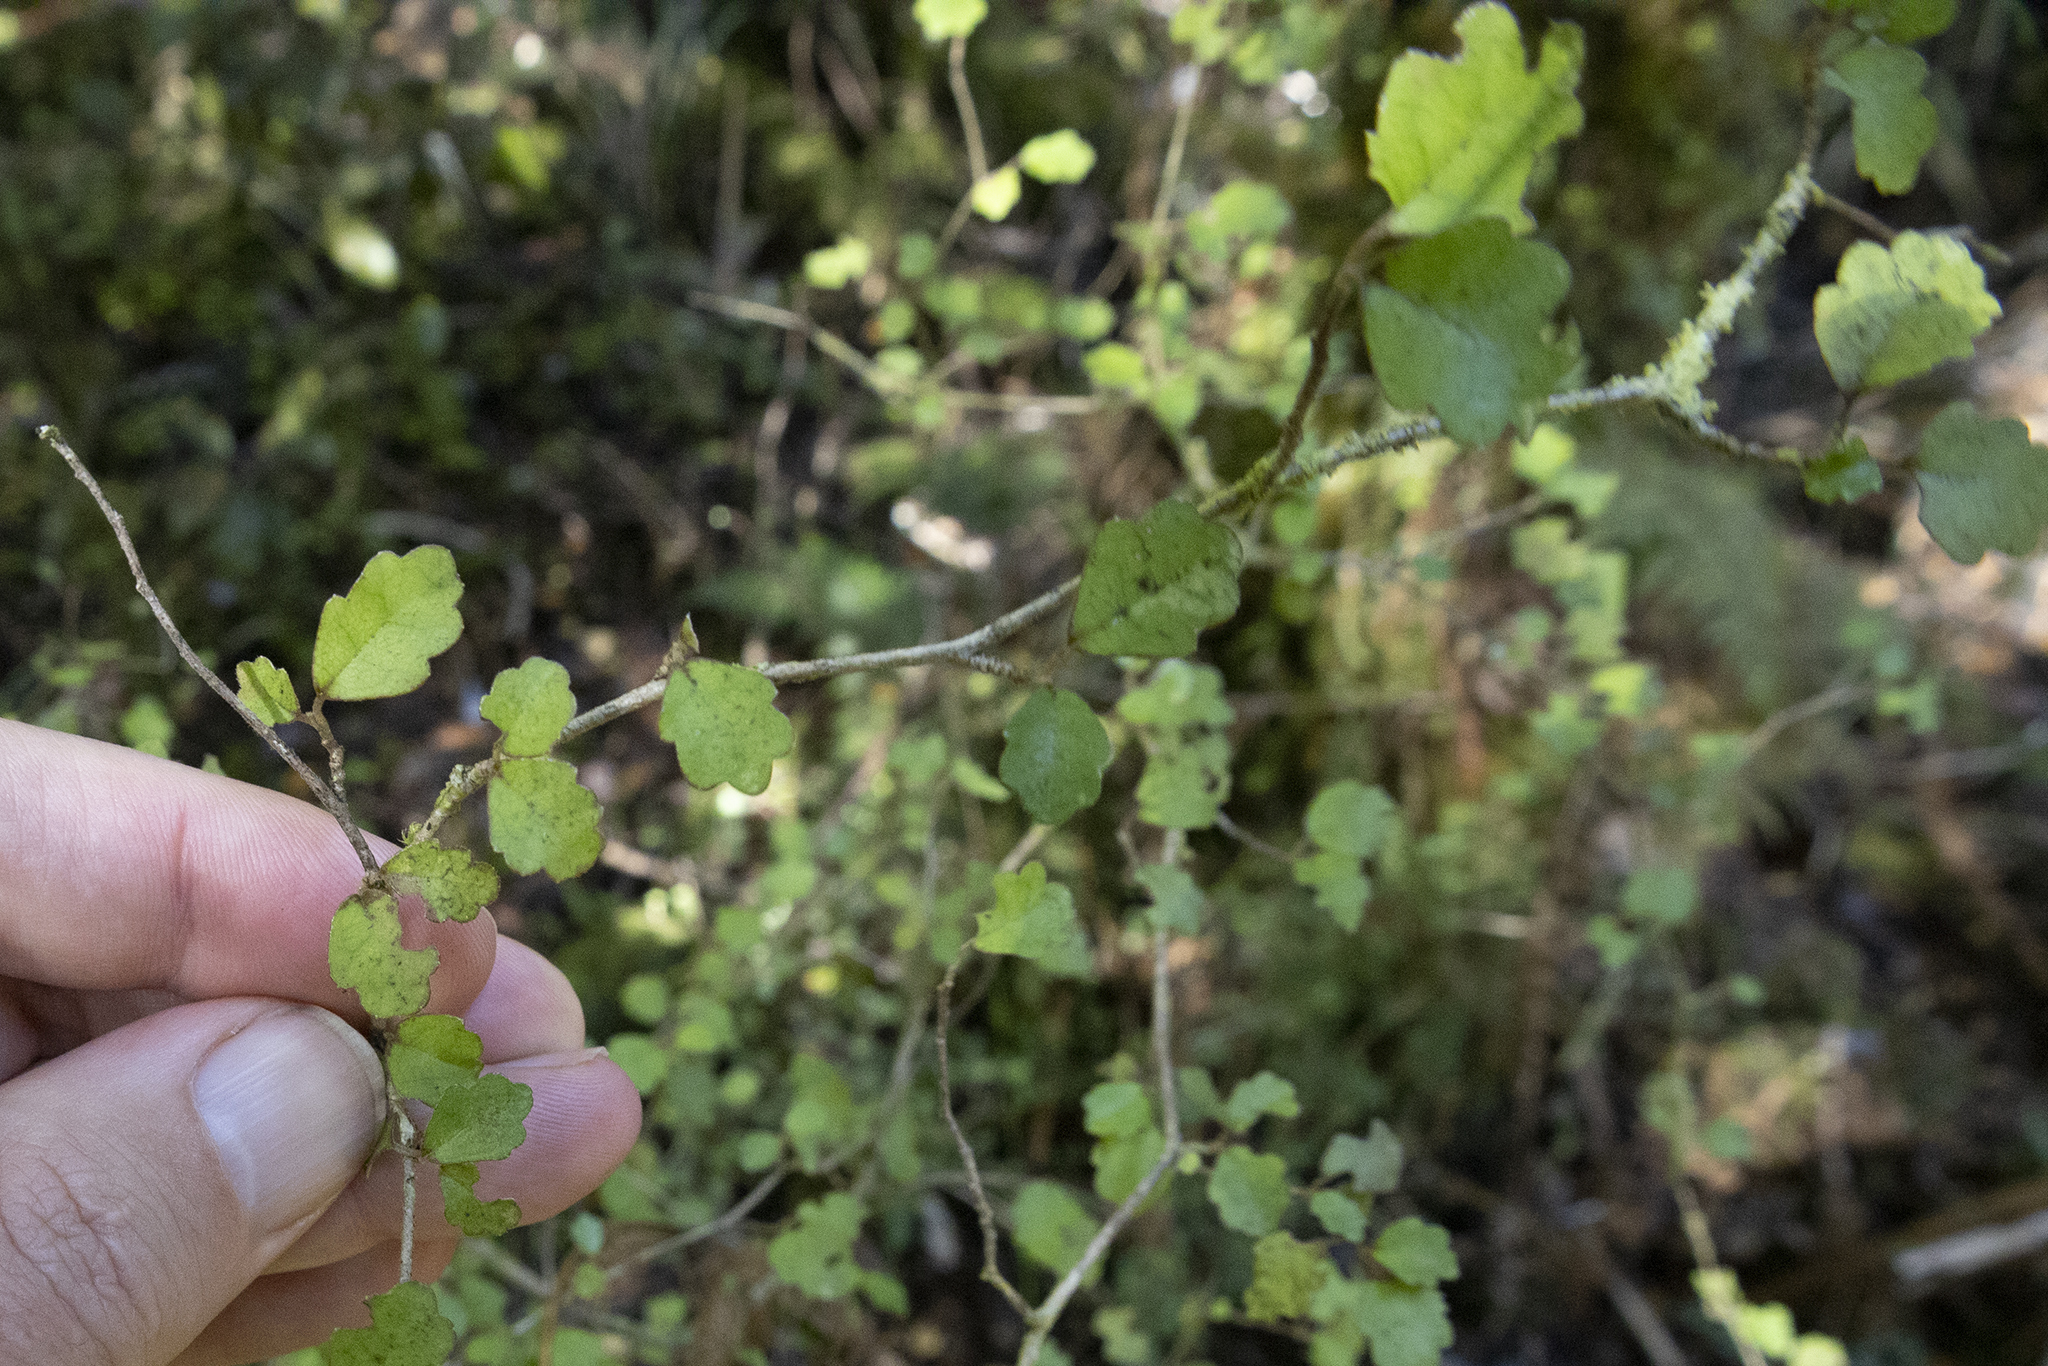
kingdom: Plantae
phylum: Tracheophyta
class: Magnoliopsida
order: Apiales
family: Pennantiaceae
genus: Pennantia
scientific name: Pennantia corymbosa
